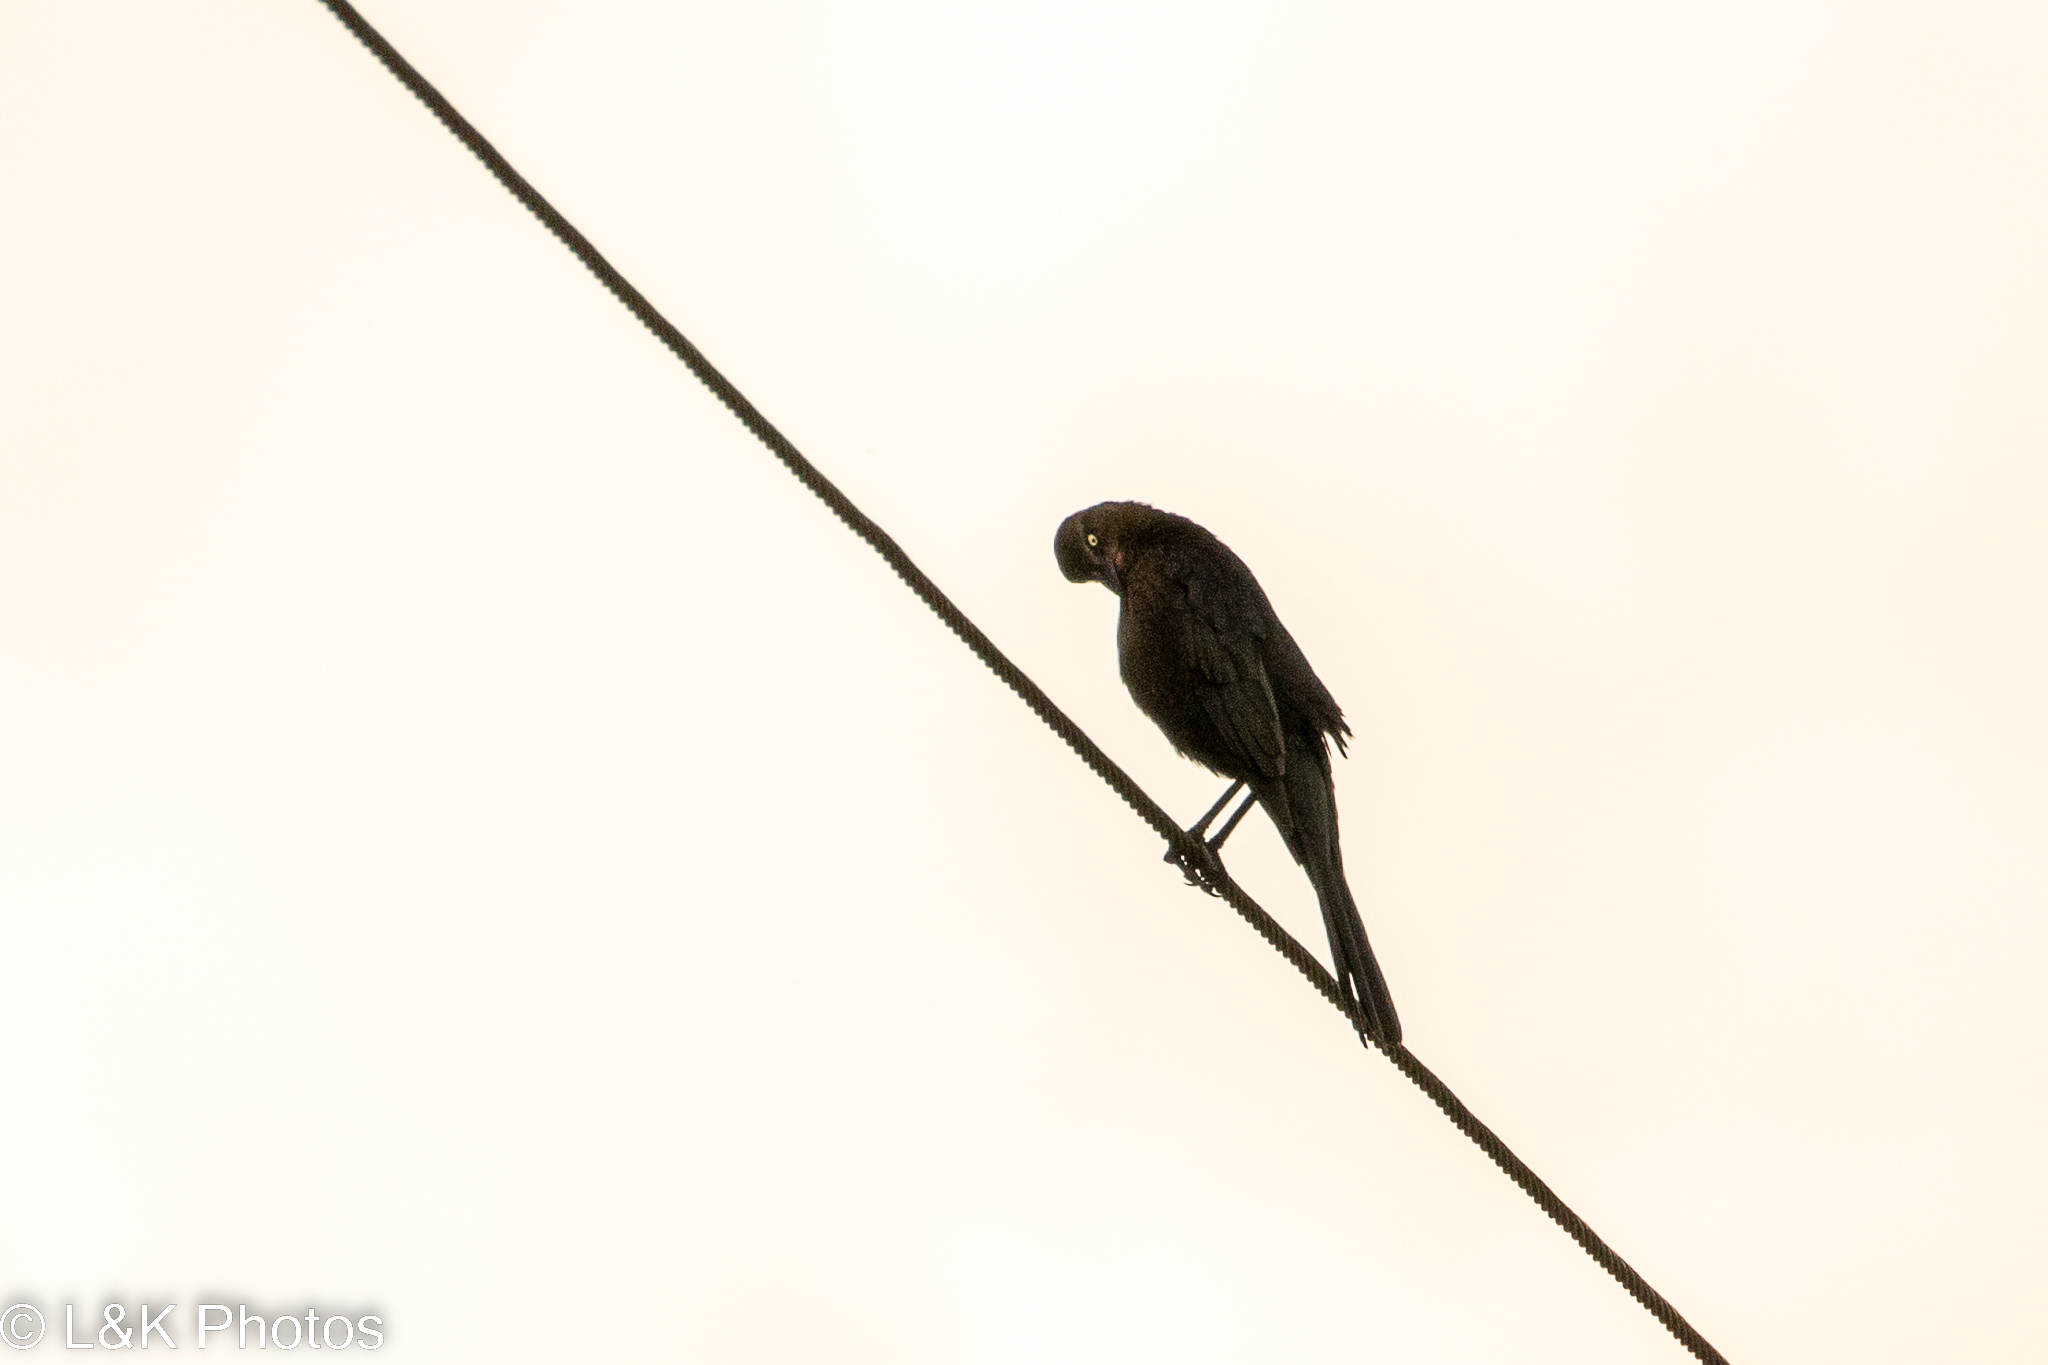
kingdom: Animalia
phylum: Chordata
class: Aves
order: Passeriformes
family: Icteridae
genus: Quiscalus
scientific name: Quiscalus mexicanus
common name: Great-tailed grackle
